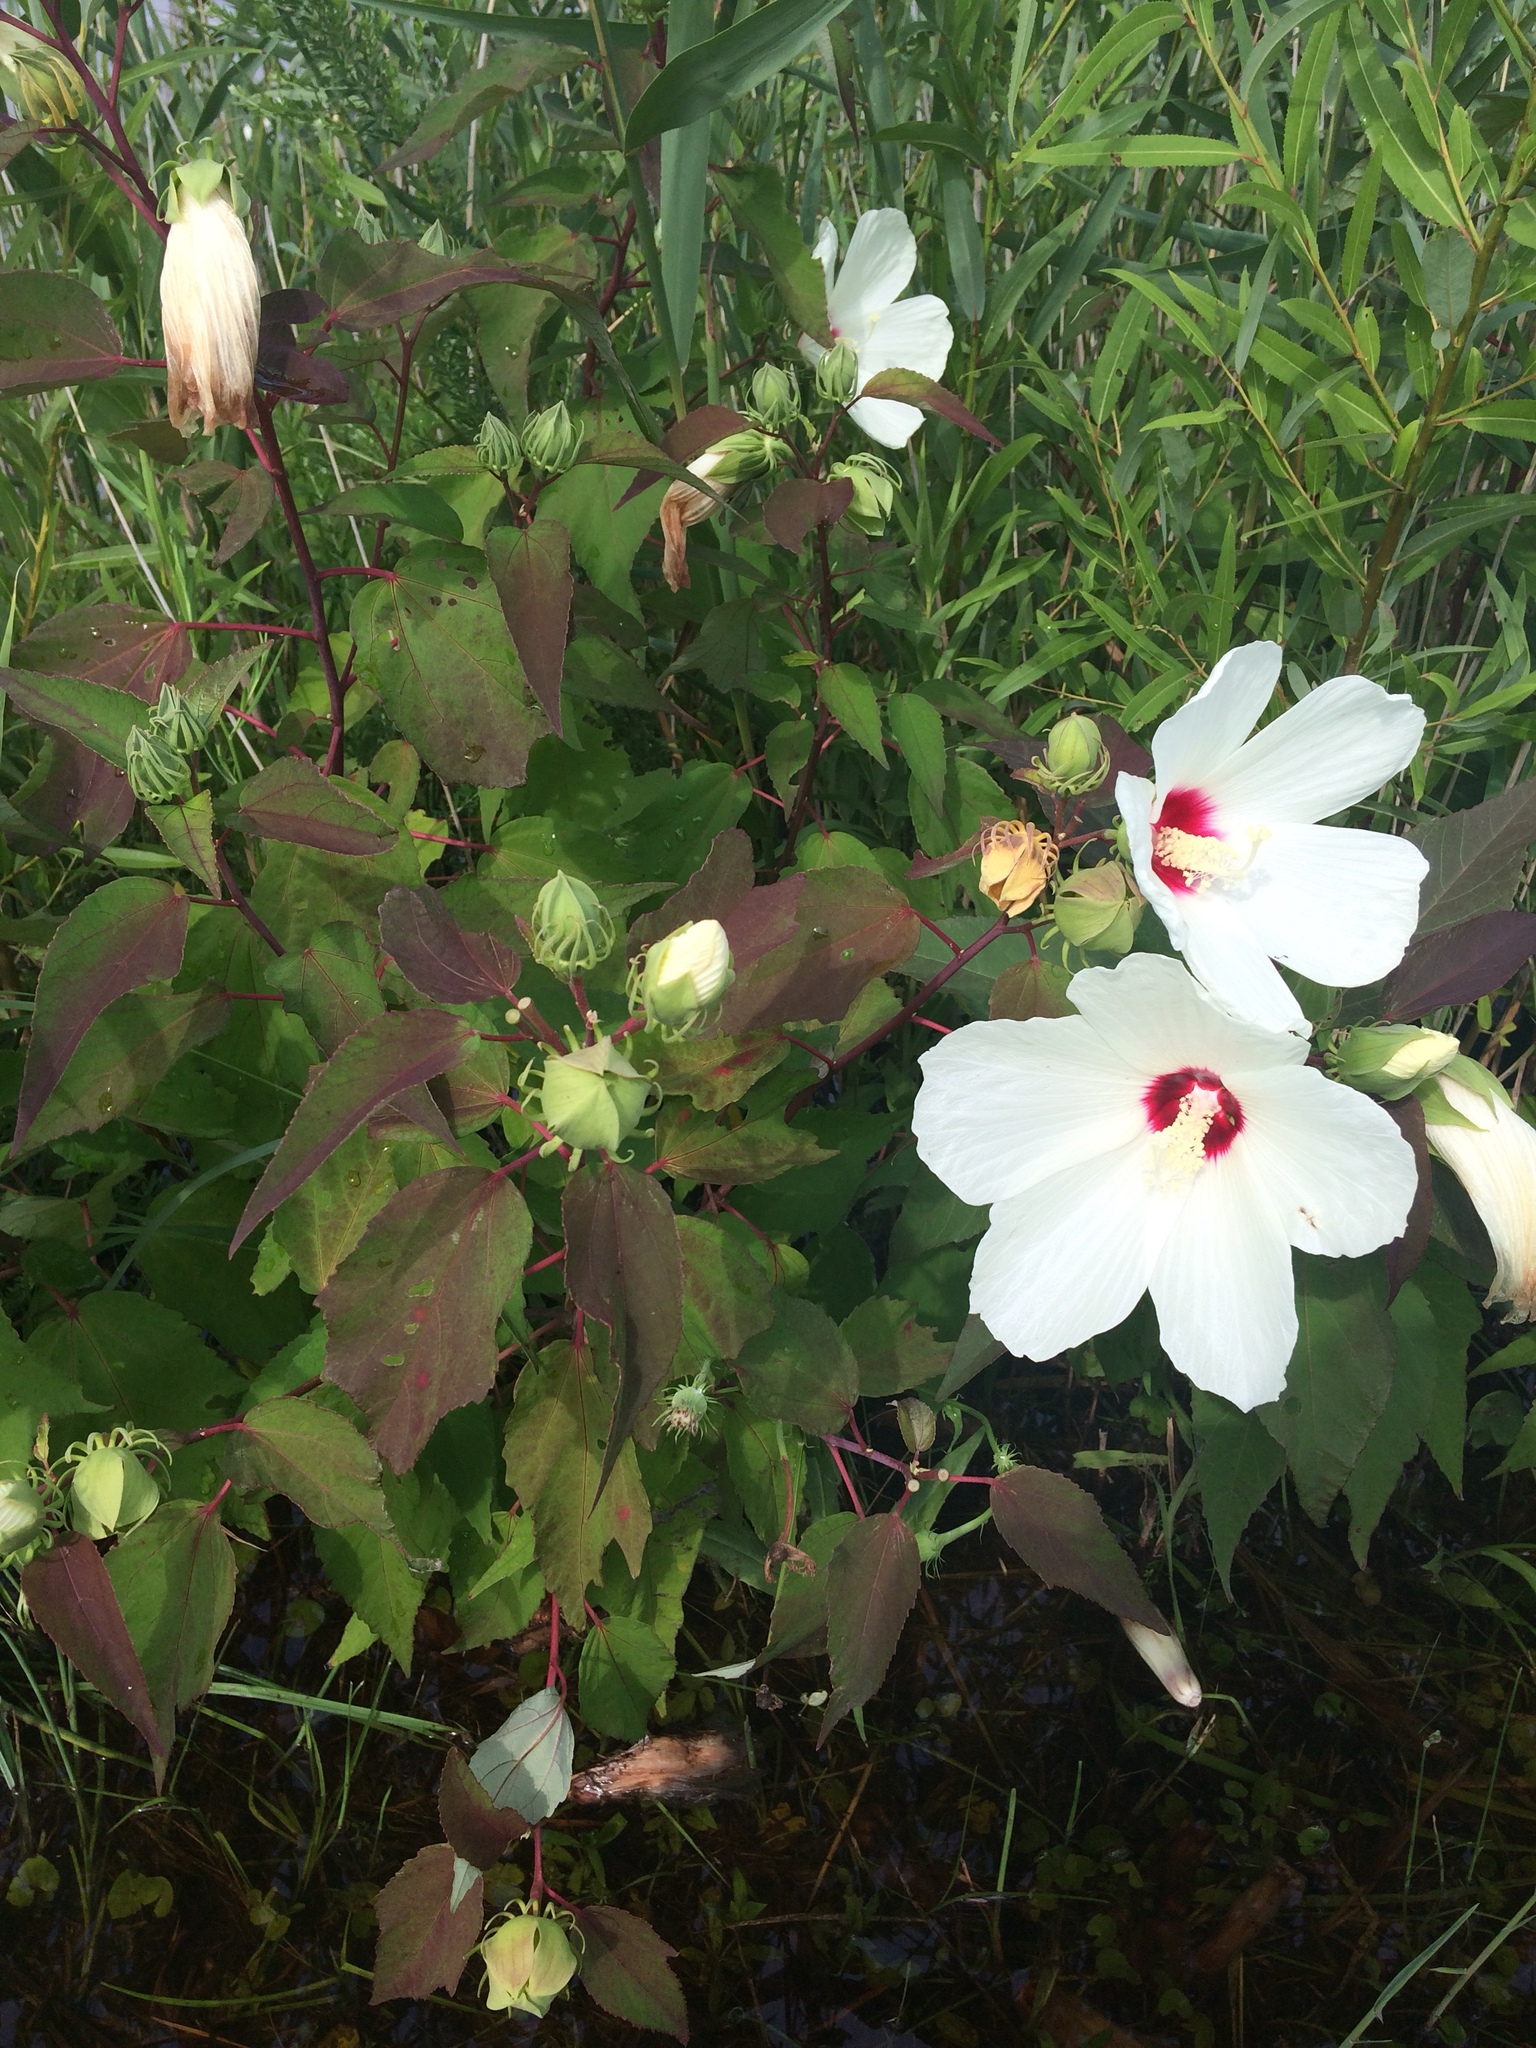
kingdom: Plantae
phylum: Tracheophyta
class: Magnoliopsida
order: Malvales
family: Malvaceae
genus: Hibiscus
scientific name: Hibiscus moscheutos
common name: Common rose-mallow
